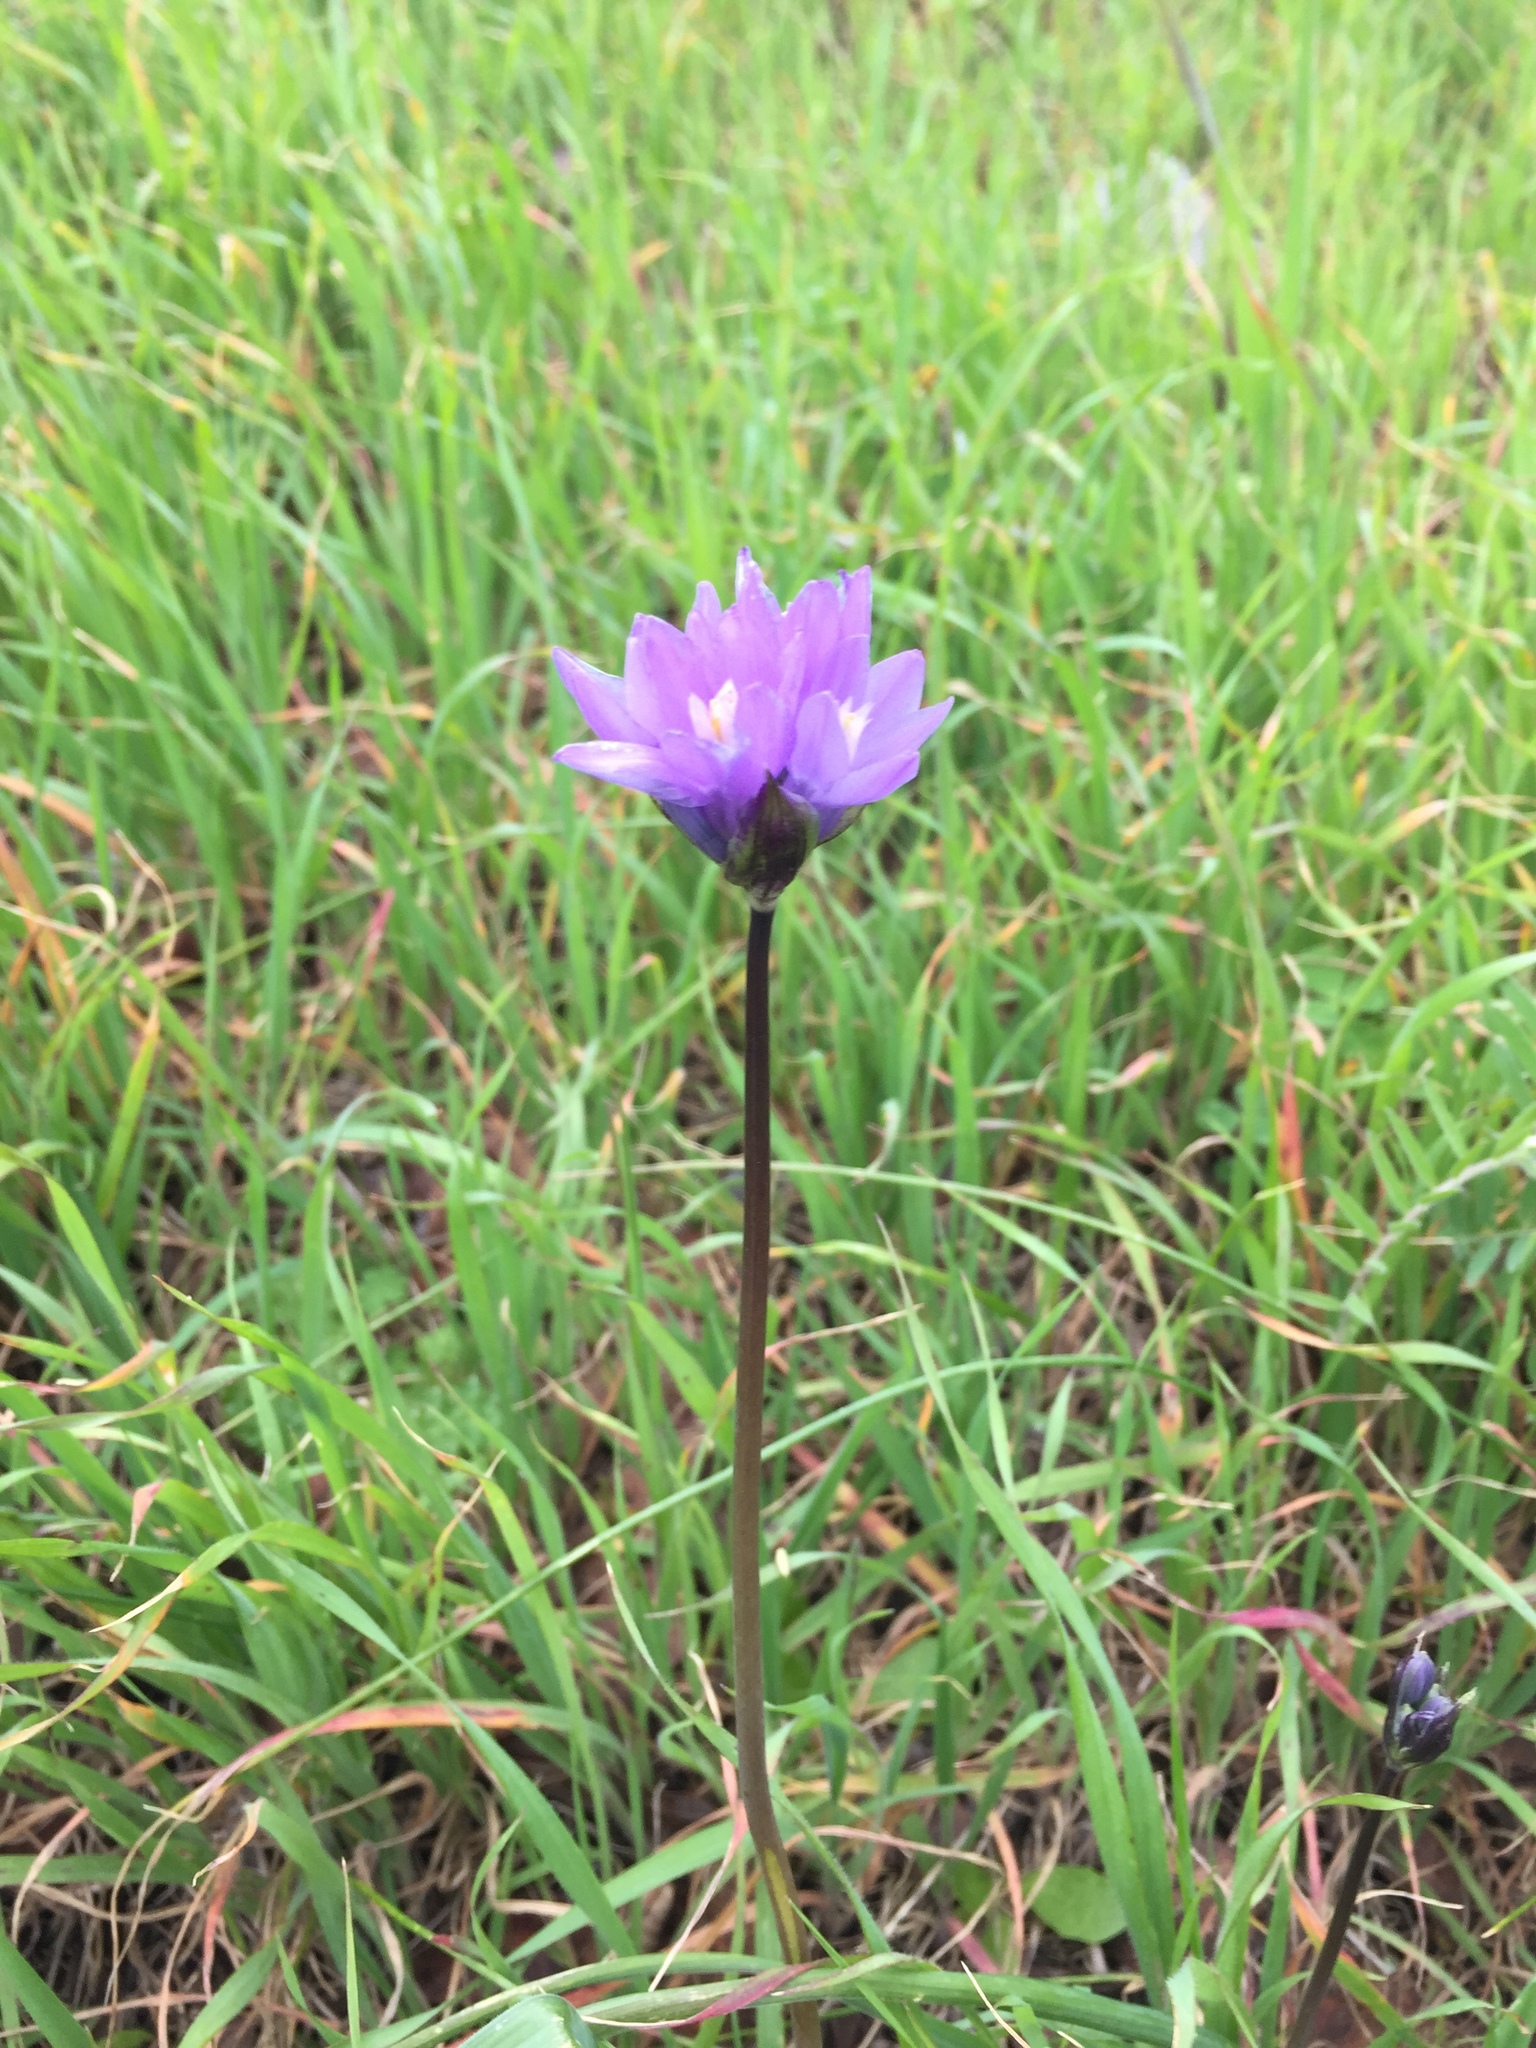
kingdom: Plantae
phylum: Tracheophyta
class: Liliopsida
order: Asparagales
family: Asparagaceae
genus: Dipterostemon
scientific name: Dipterostemon capitatus
